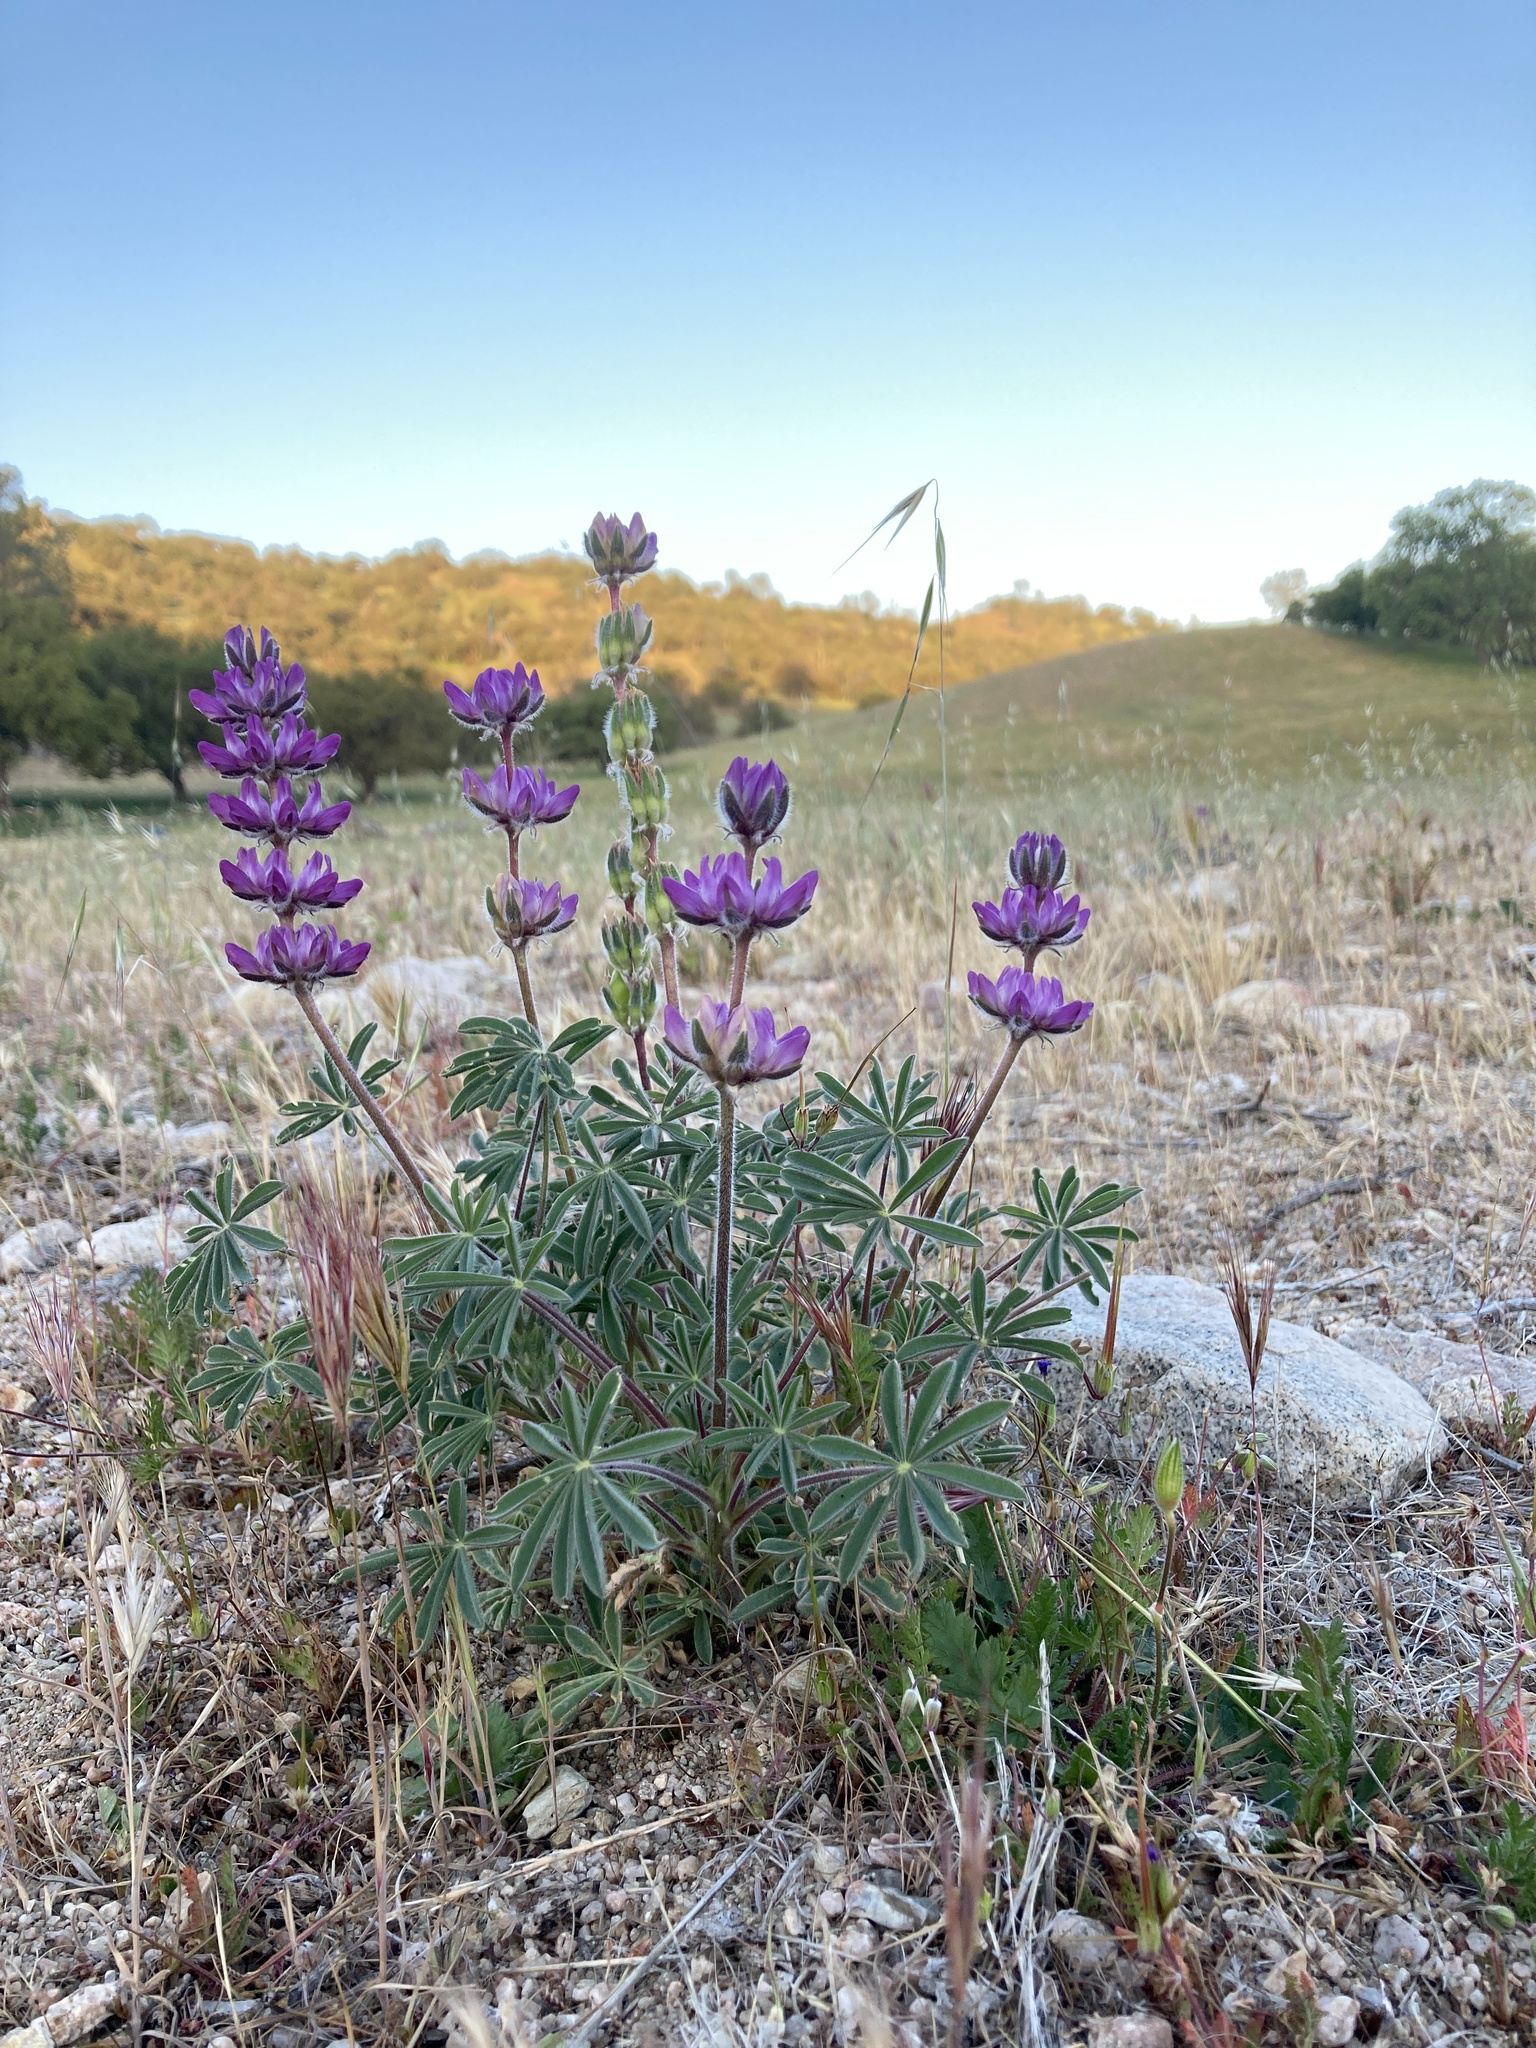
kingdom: Plantae
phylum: Tracheophyta
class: Magnoliopsida
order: Fabales
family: Fabaceae
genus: Lupinus
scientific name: Lupinus microcarpus
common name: Chick lupine
